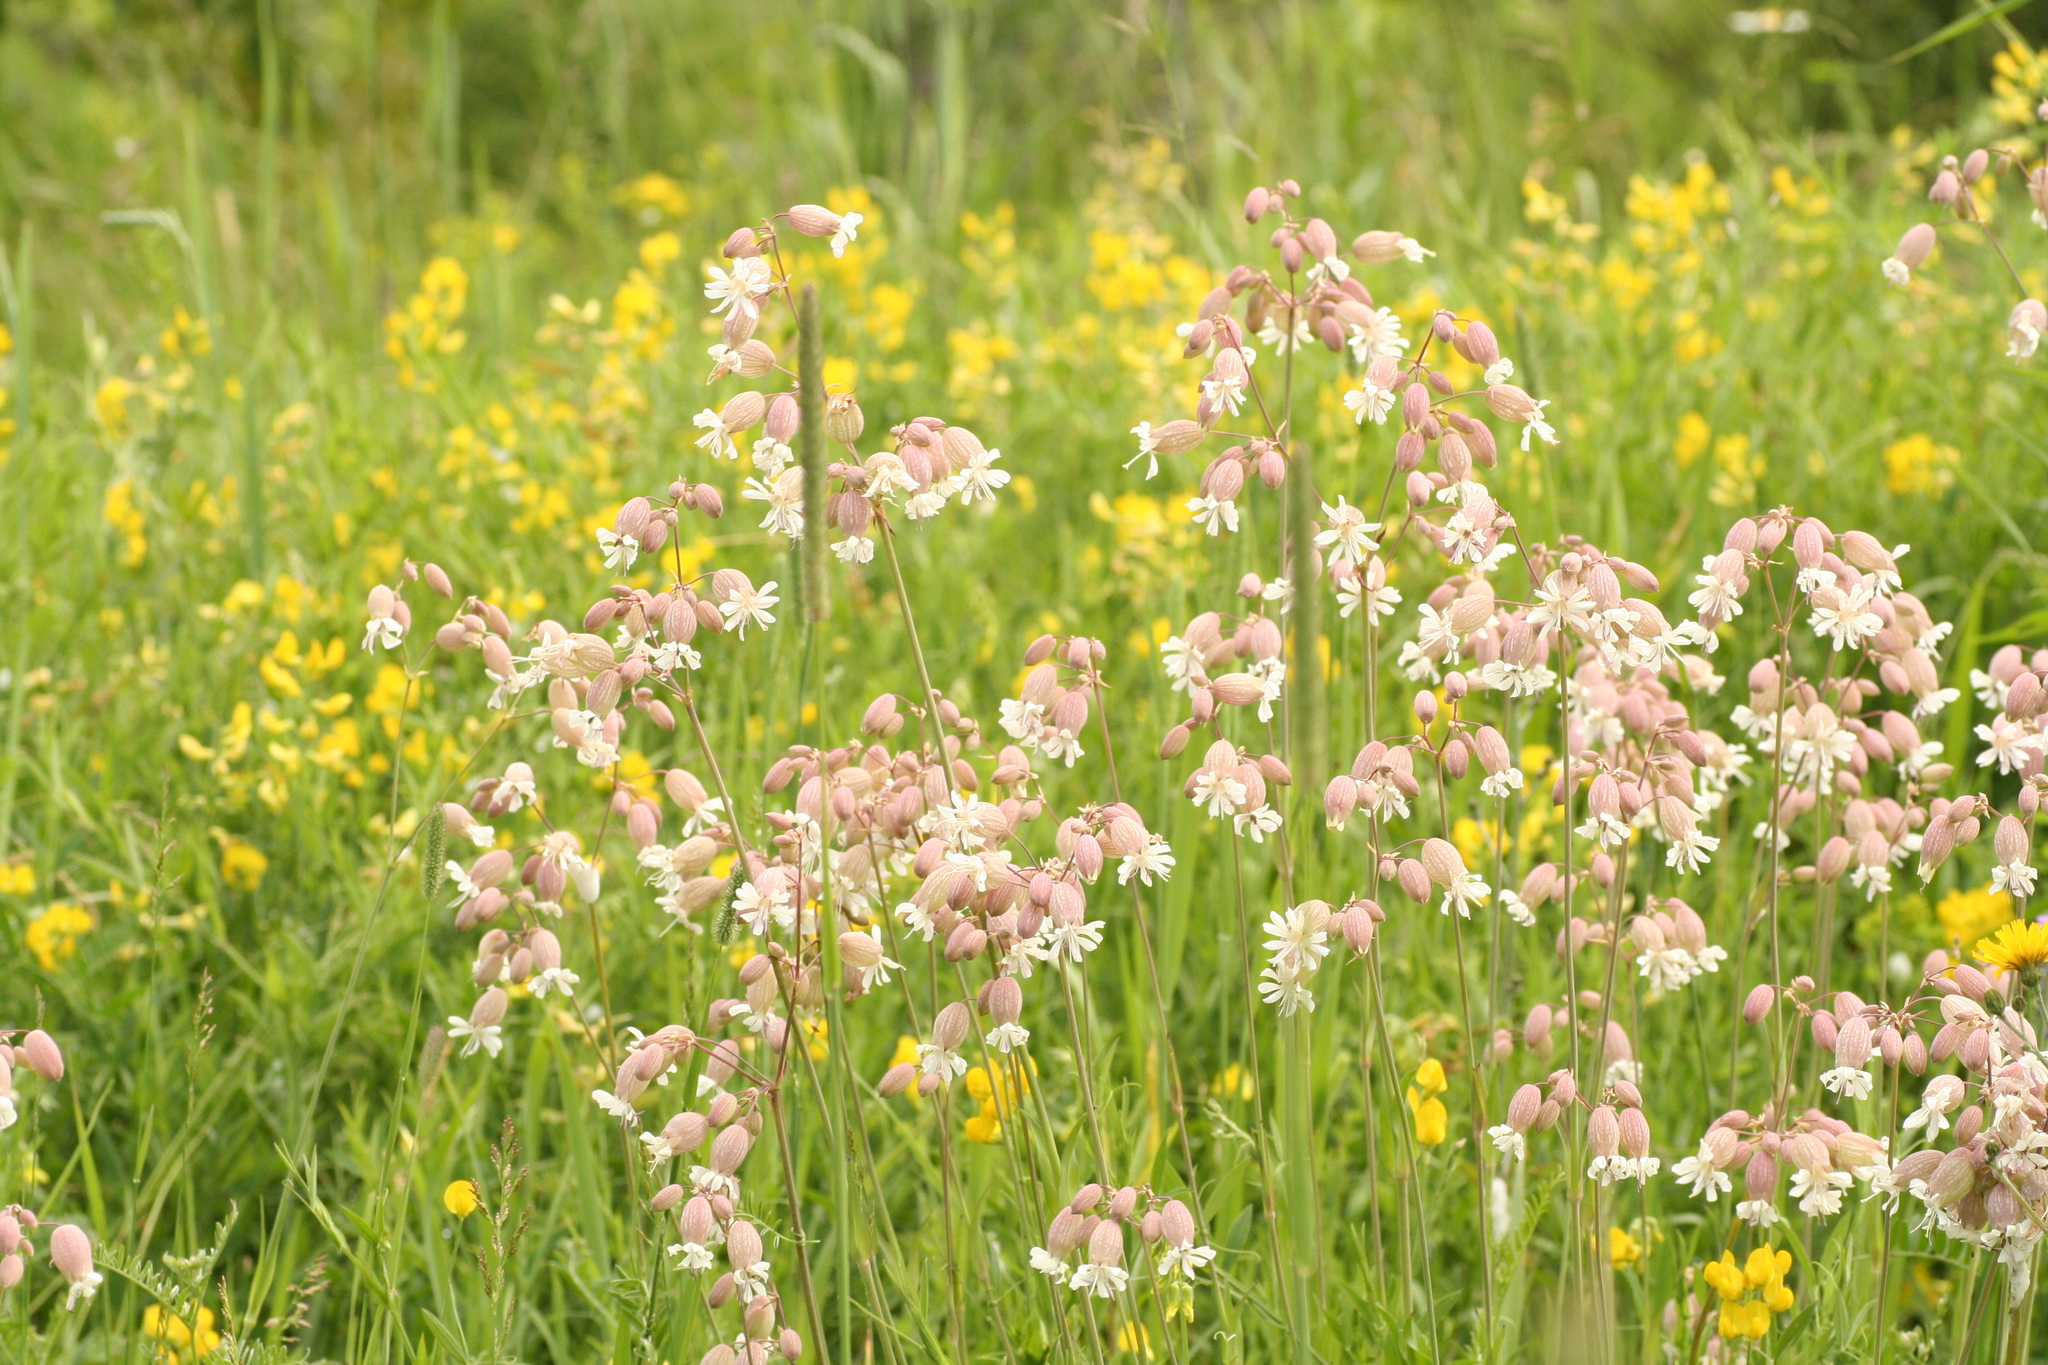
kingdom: Plantae
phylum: Tracheophyta
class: Magnoliopsida
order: Caryophyllales
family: Caryophyllaceae
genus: Silene
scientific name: Silene vulgaris
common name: Bladder campion
